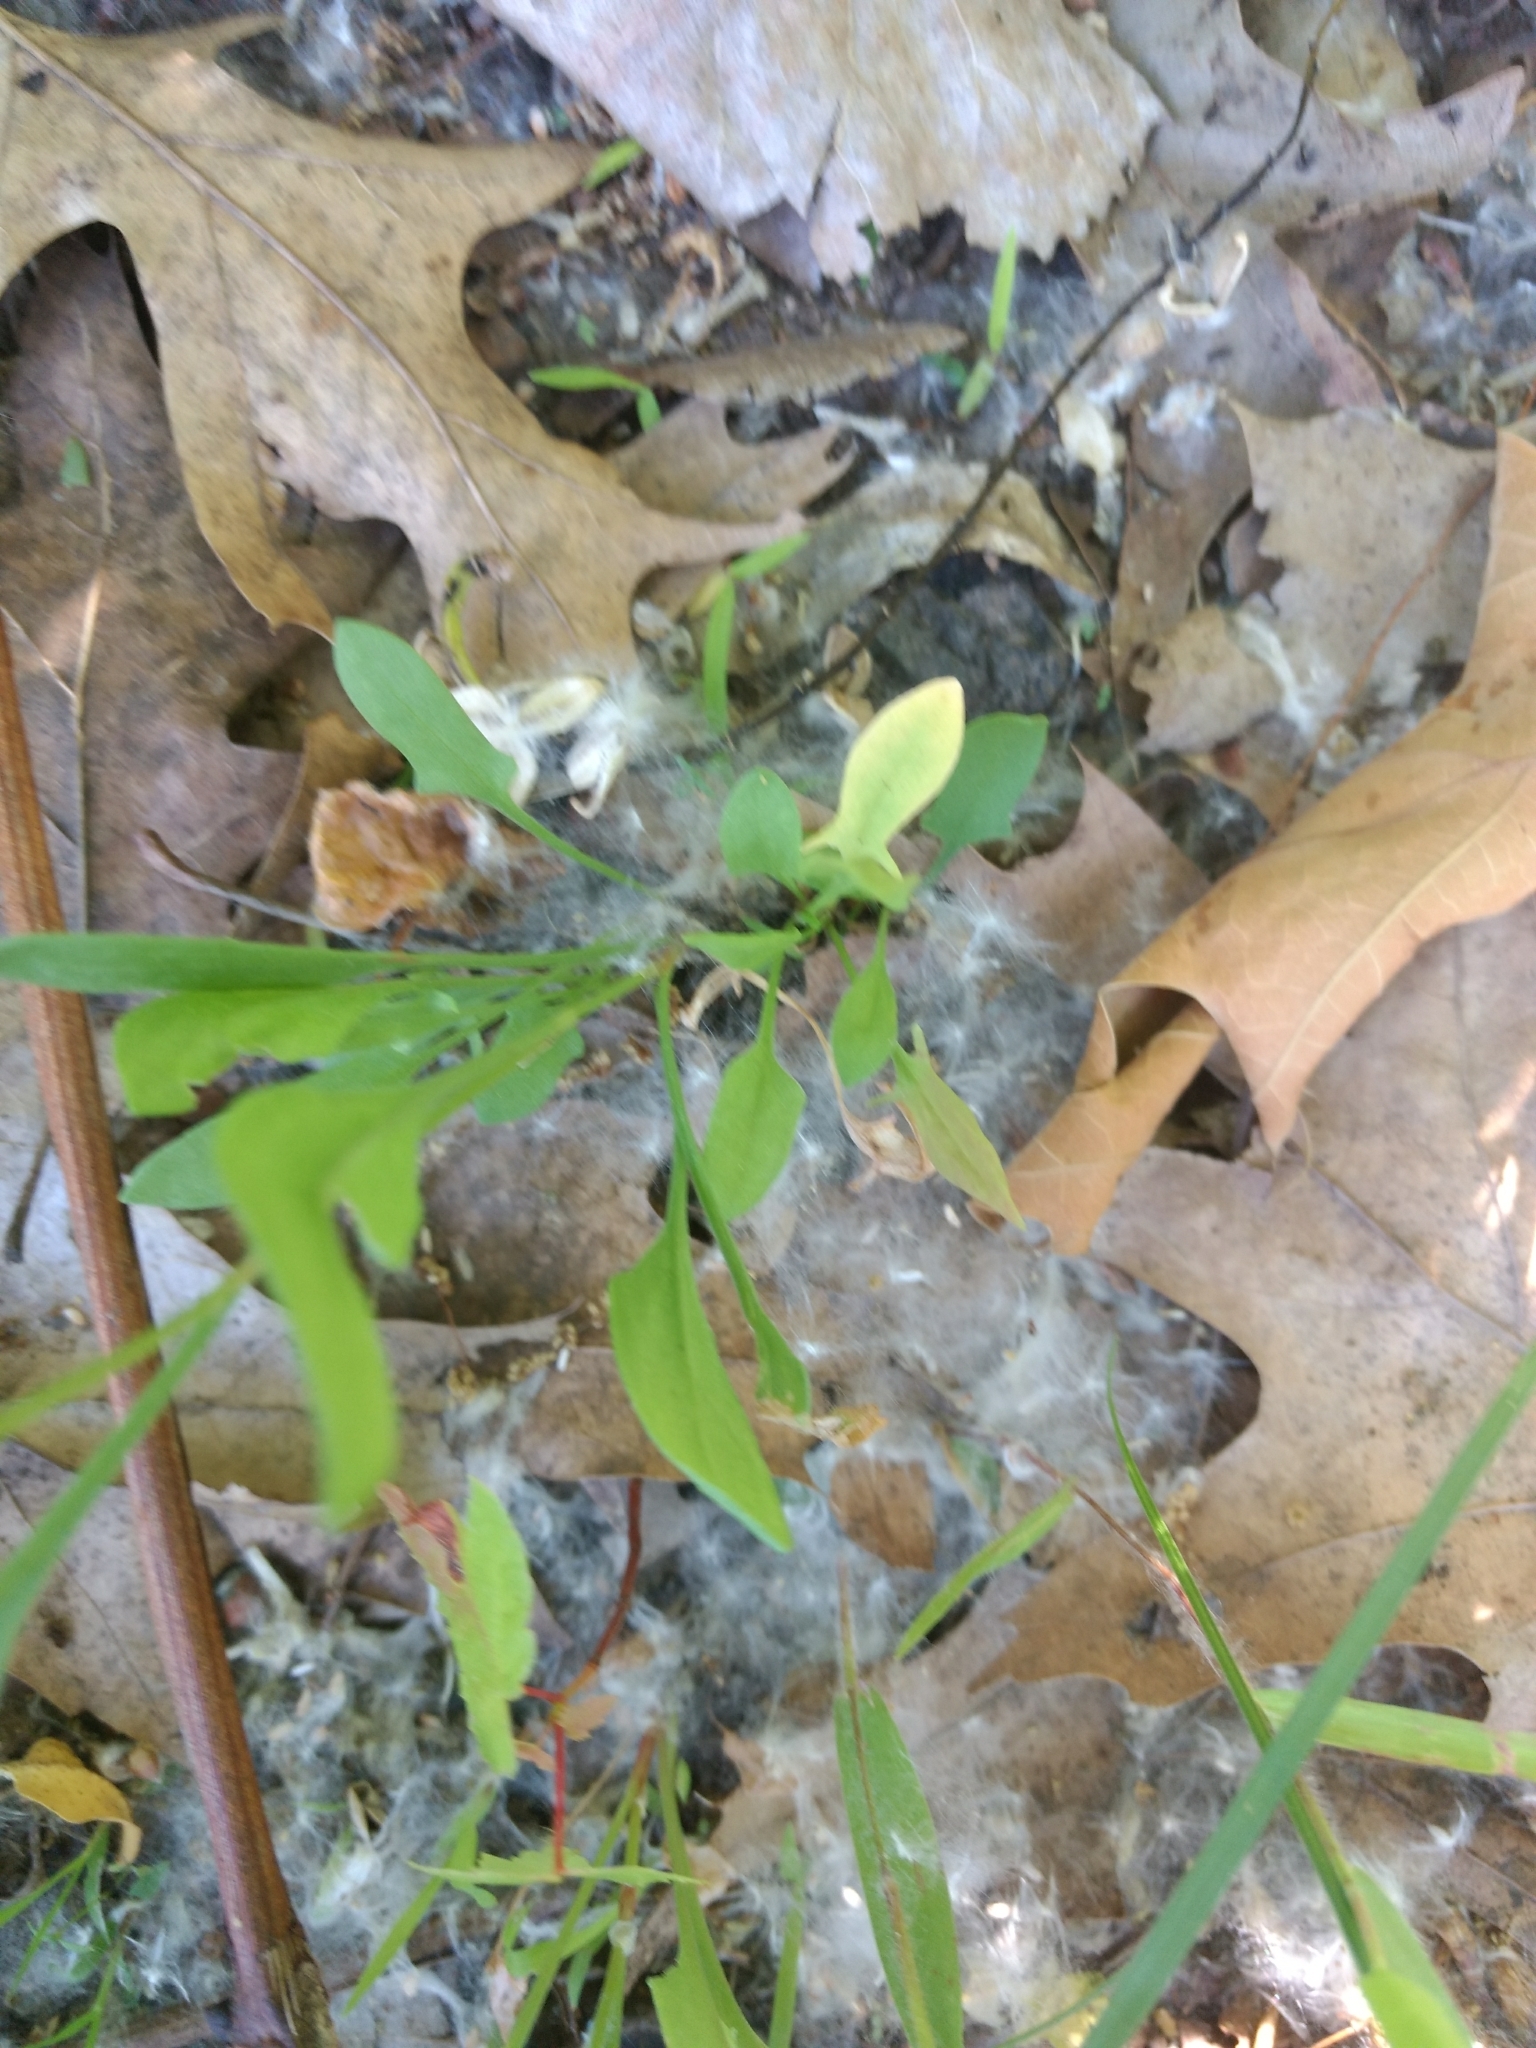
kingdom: Plantae
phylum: Tracheophyta
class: Magnoliopsida
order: Caryophyllales
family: Polygonaceae
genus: Rumex
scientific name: Rumex acetosella
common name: Common sheep sorrel
